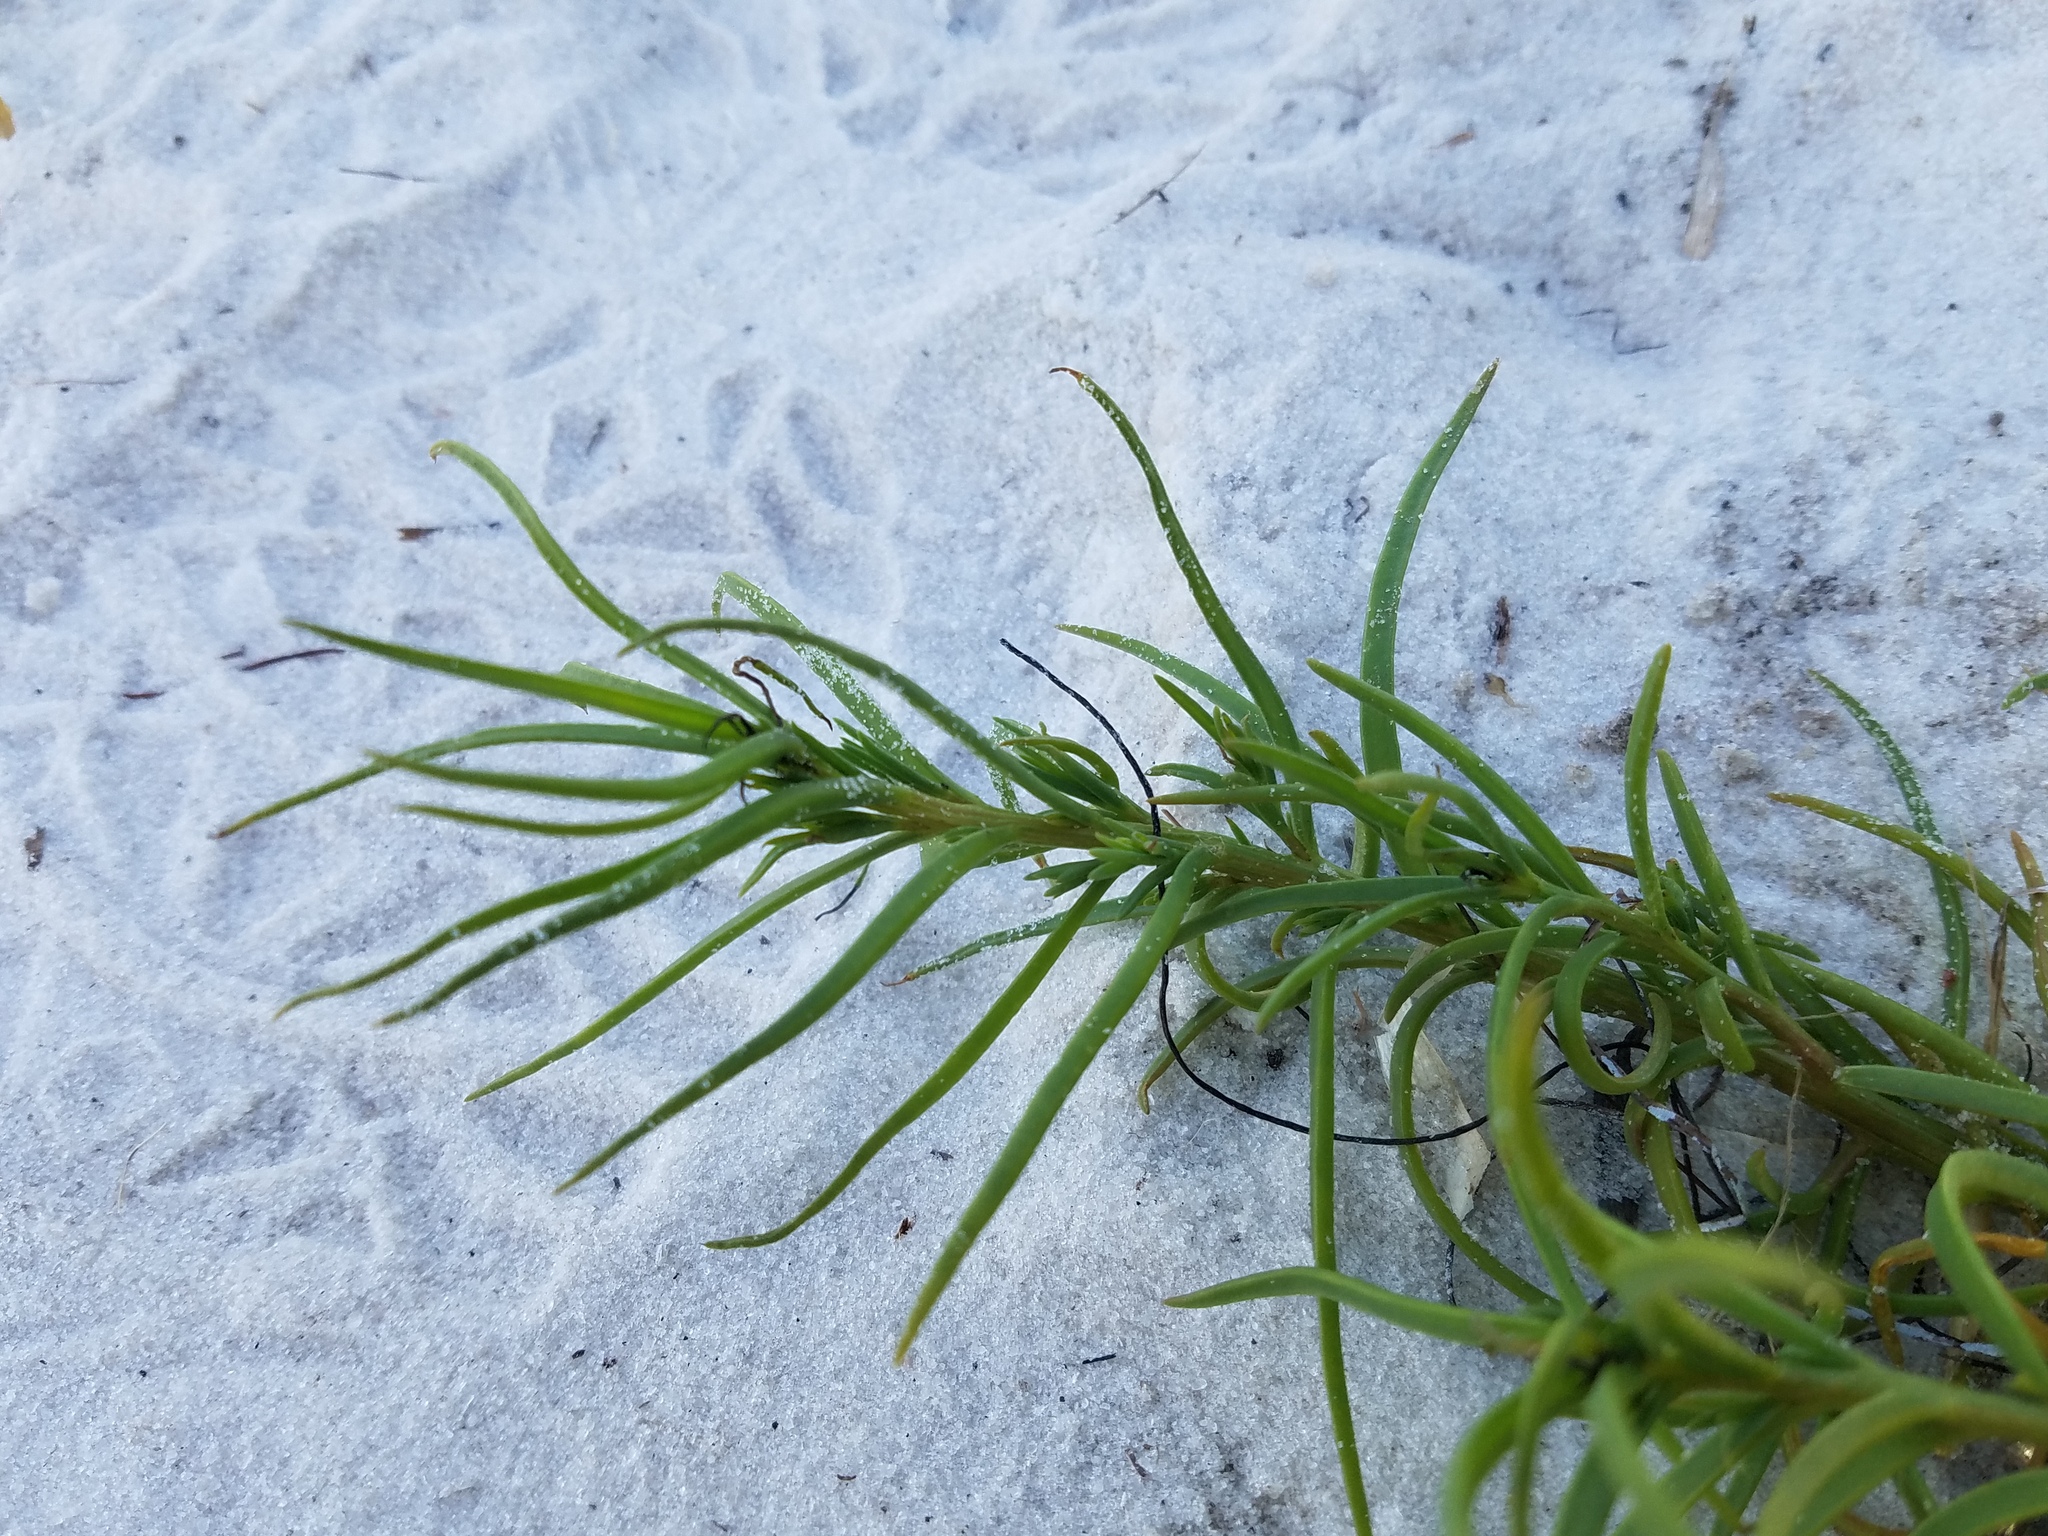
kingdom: Plantae
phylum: Tracheophyta
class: Magnoliopsida
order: Caryophyllales
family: Amaranthaceae
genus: Suaeda
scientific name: Suaeda linearis
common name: Annual seepweed
